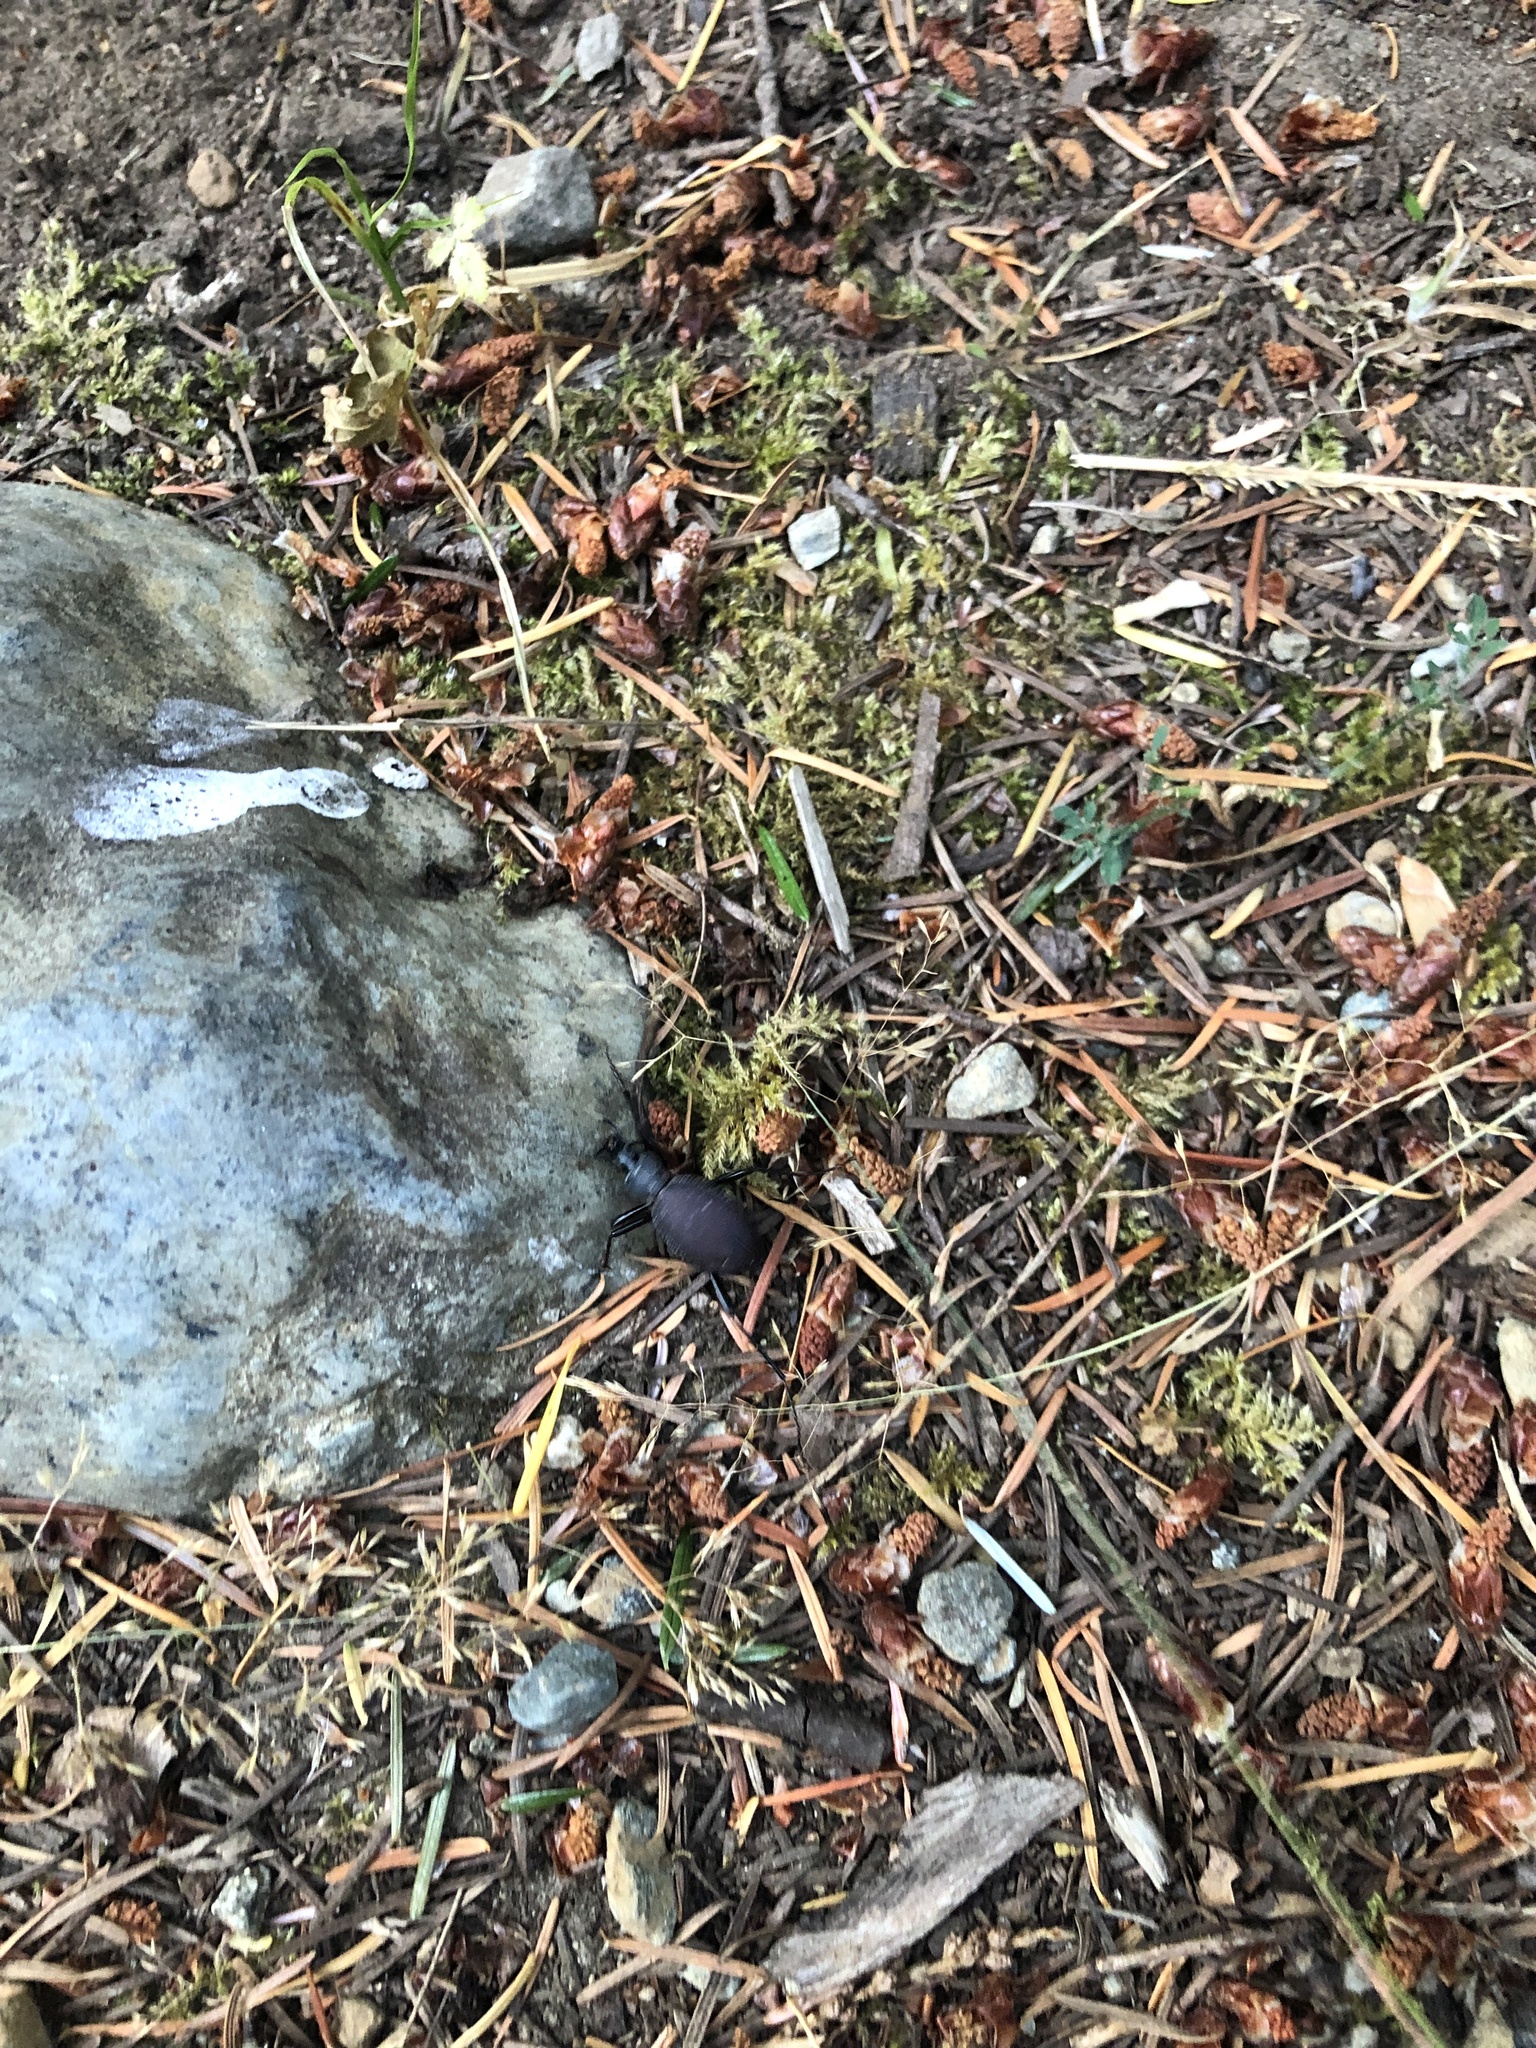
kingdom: Animalia
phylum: Arthropoda
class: Insecta
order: Coleoptera
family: Carabidae
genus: Scaphinotus
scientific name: Scaphinotus angusticollis
